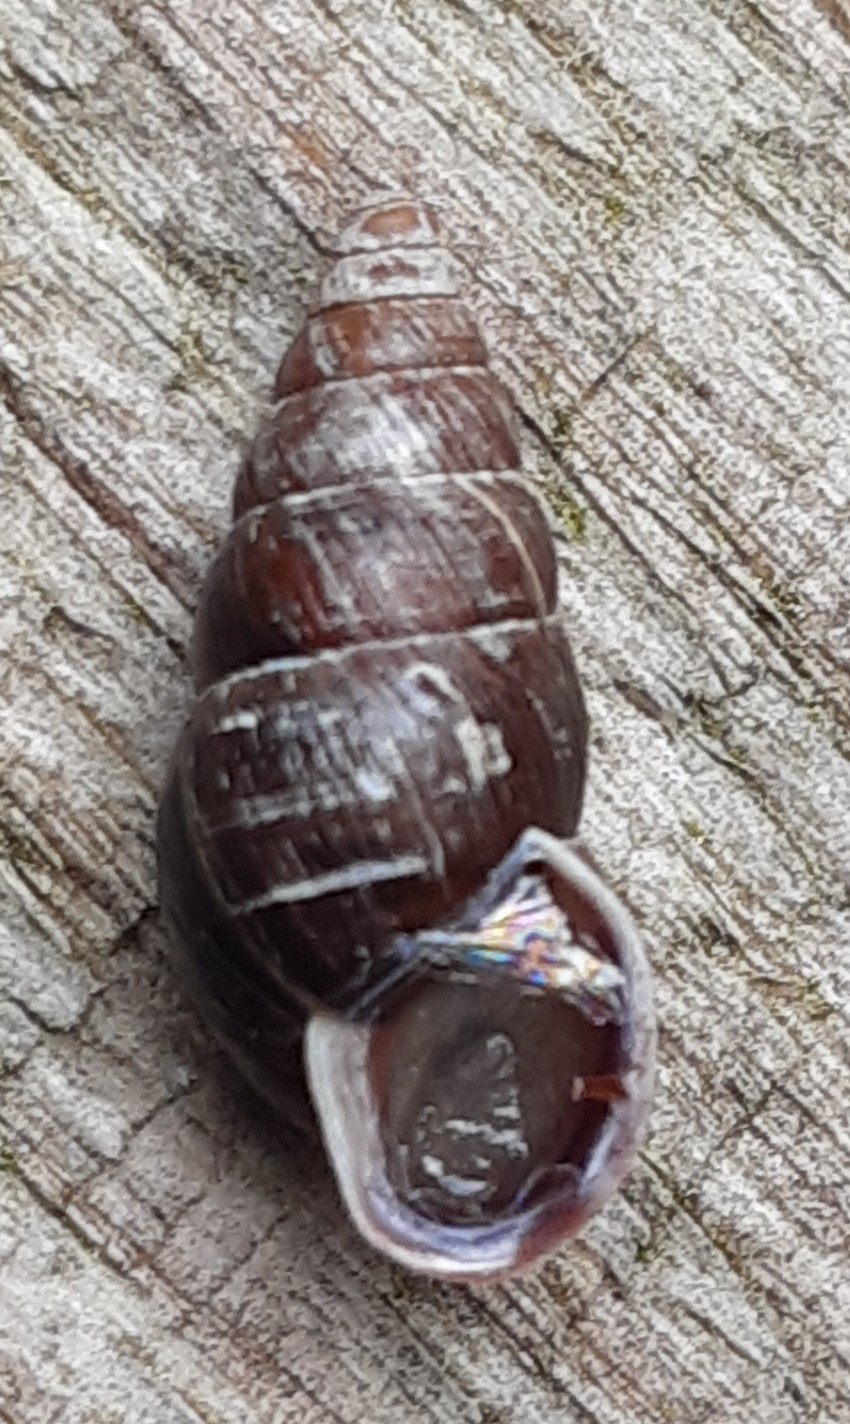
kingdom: Animalia
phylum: Mollusca
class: Gastropoda
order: Stylommatophora
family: Enidae
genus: Ena
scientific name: Ena montana
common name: Mountain bulin
